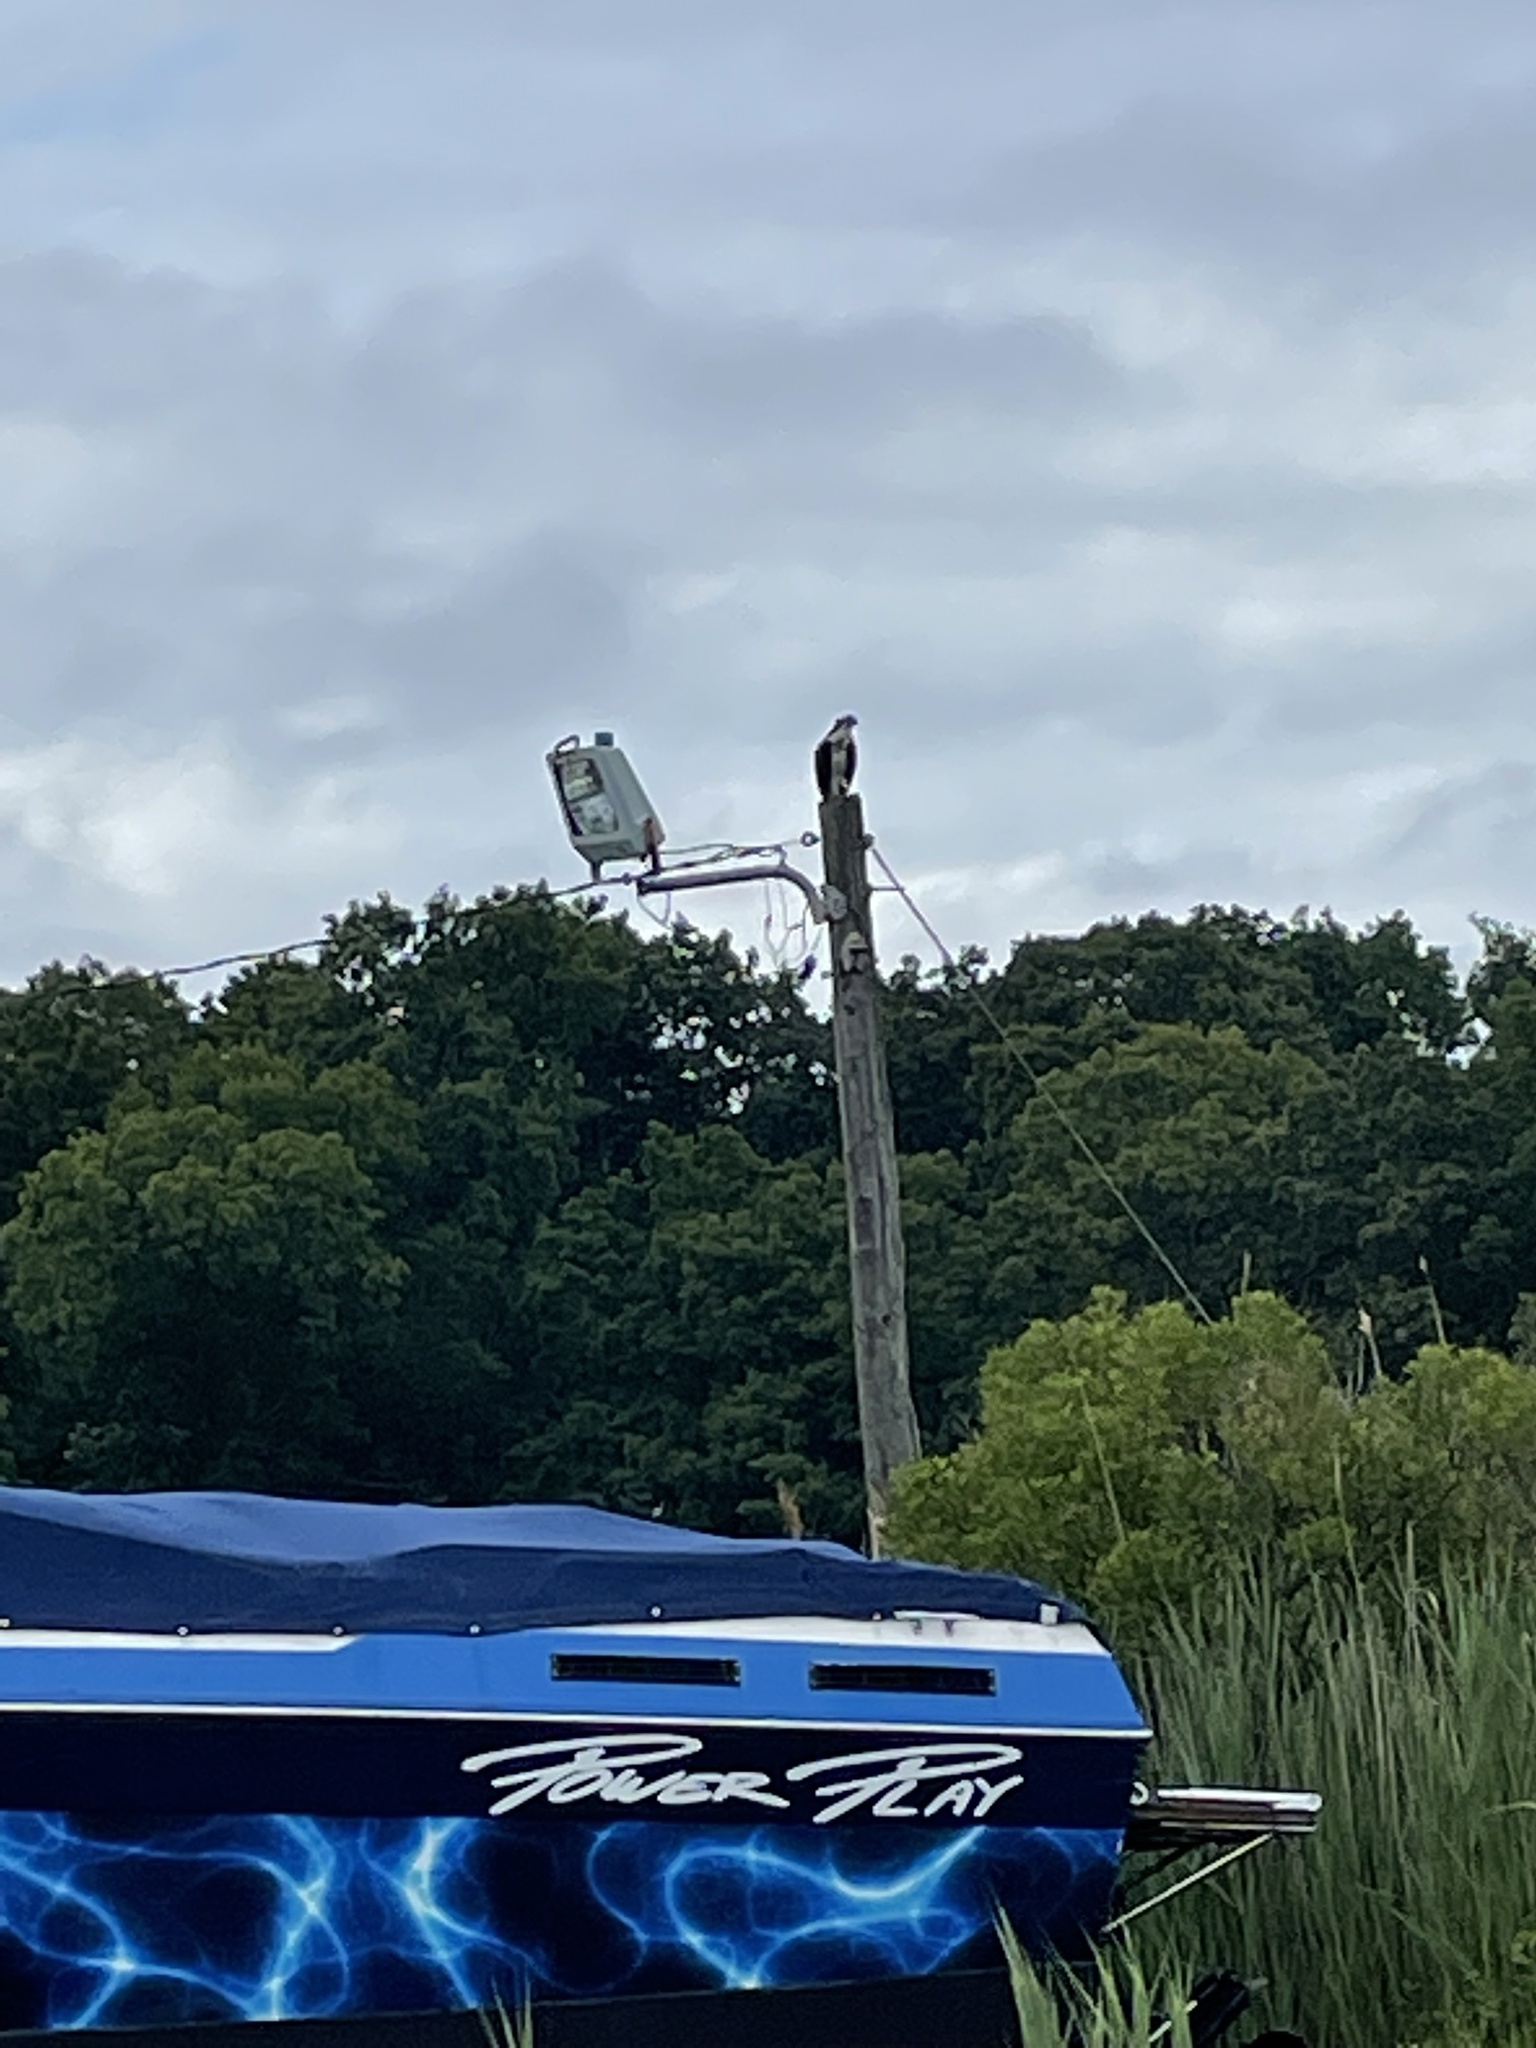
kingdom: Animalia
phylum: Chordata
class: Aves
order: Accipitriformes
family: Pandionidae
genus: Pandion
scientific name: Pandion haliaetus
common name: Osprey
